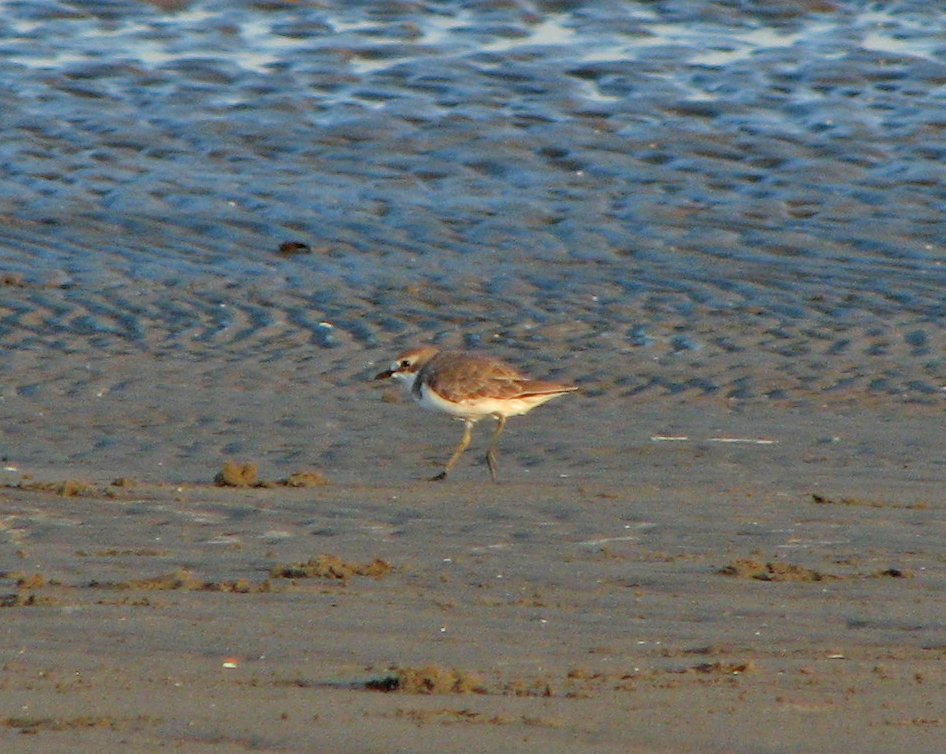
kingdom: Animalia
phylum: Chordata
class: Aves
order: Charadriiformes
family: Charadriidae
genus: Anarhynchus
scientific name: Anarhynchus
